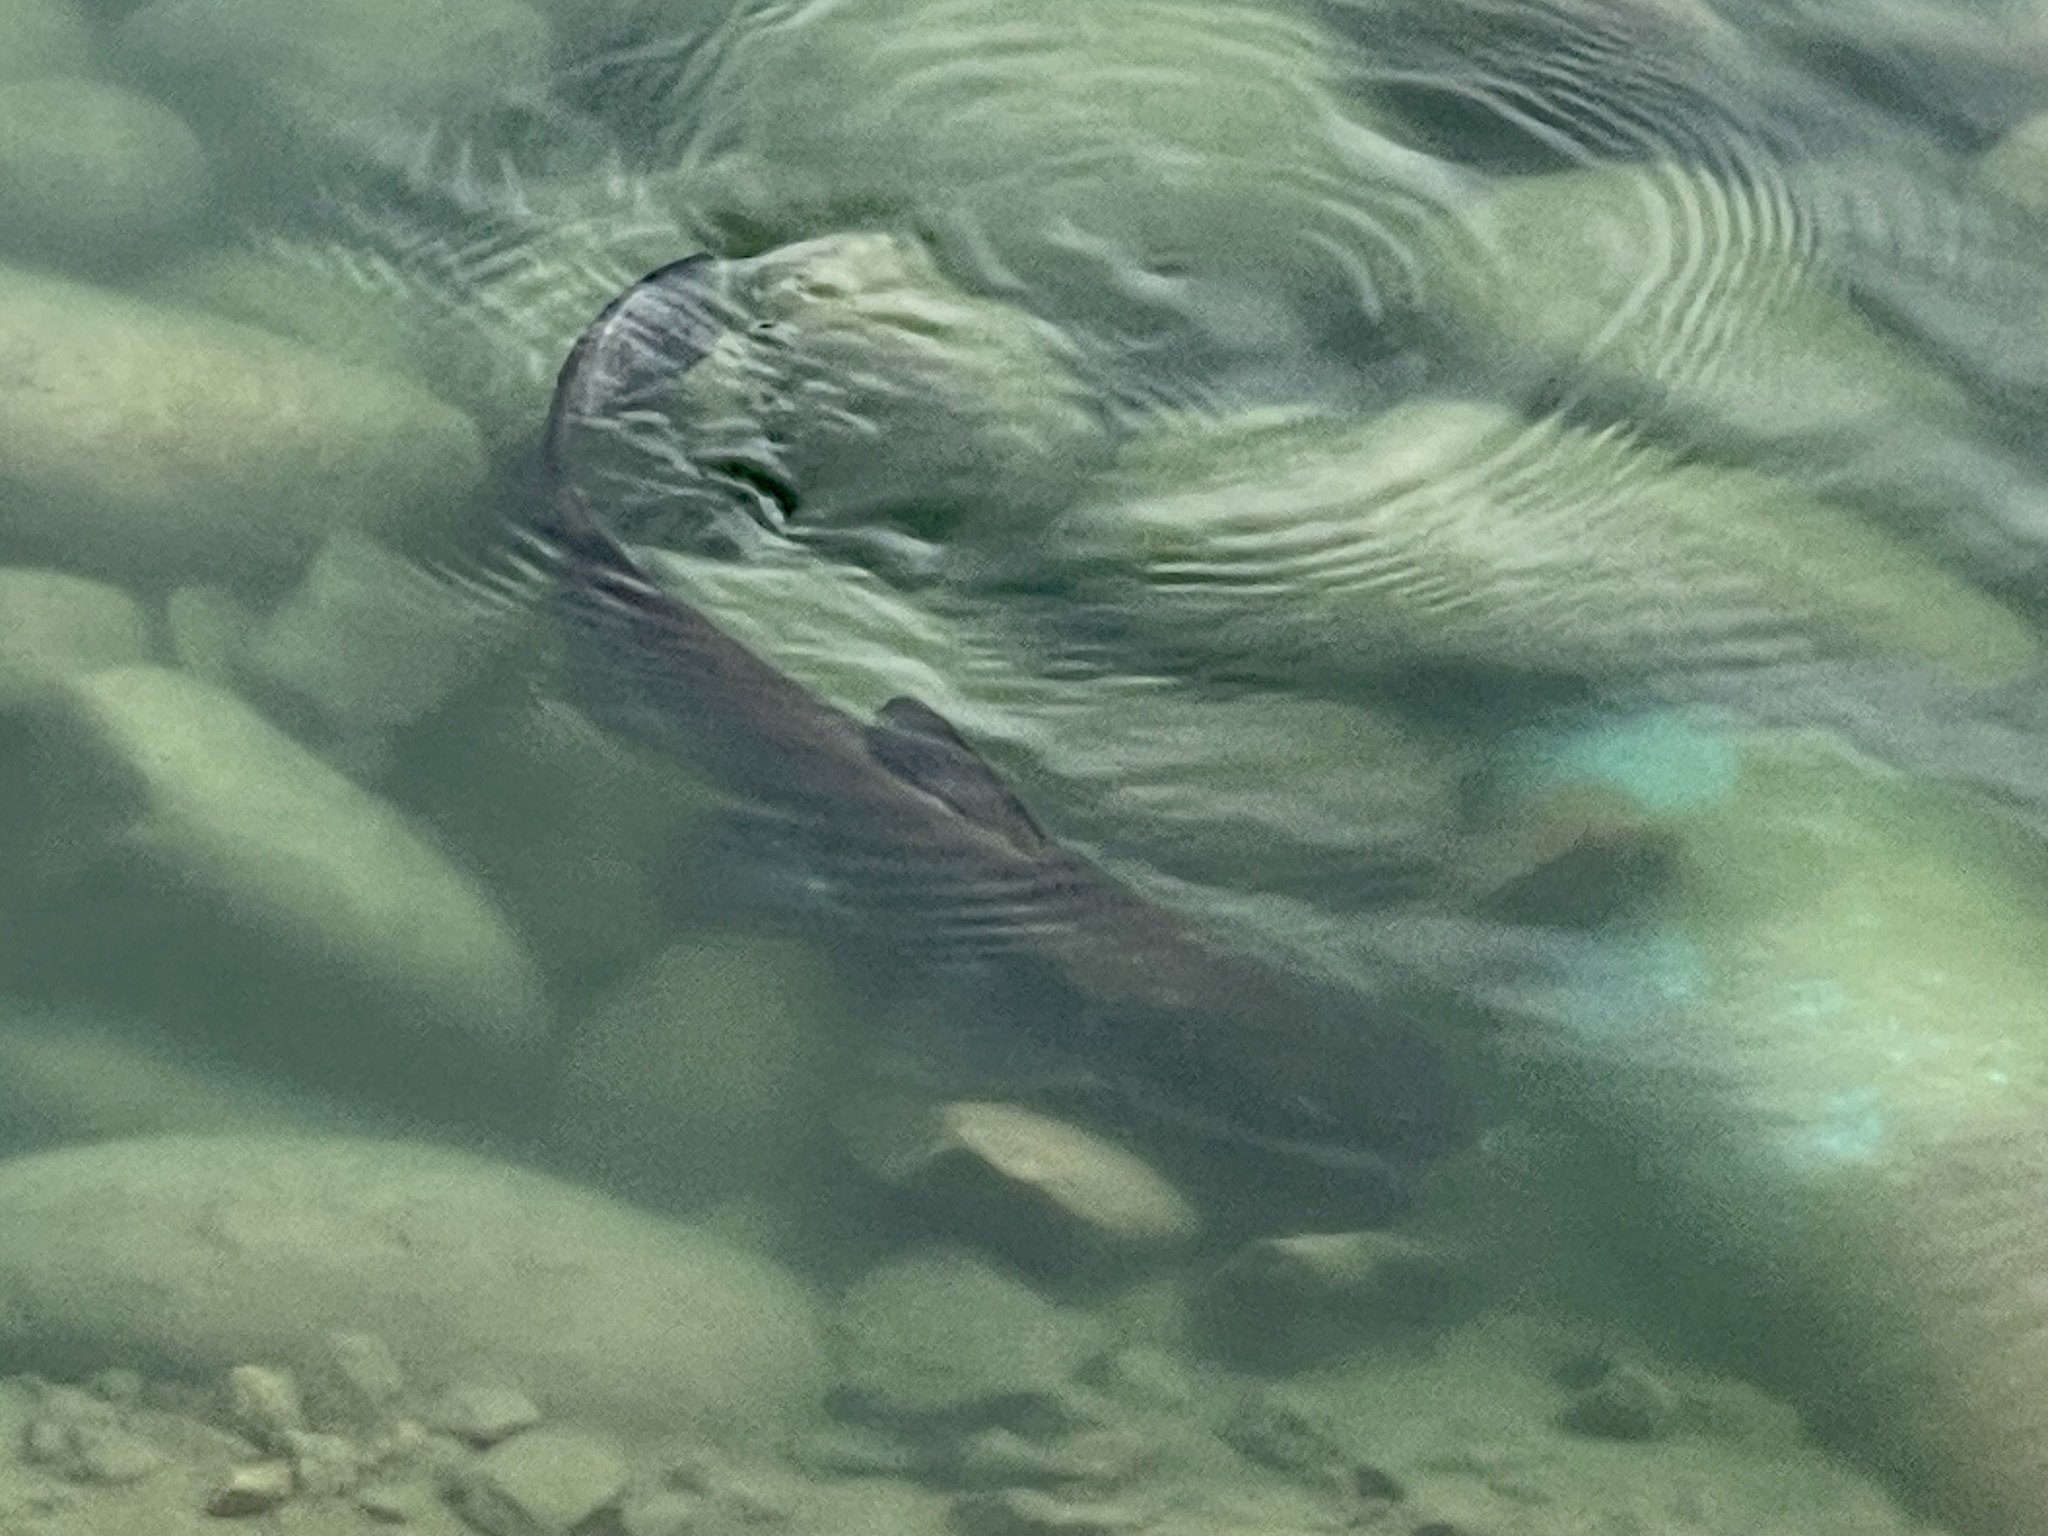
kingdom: Animalia
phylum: Chordata
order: Siluriformes
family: Ictaluridae
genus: Ictalurus
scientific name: Ictalurus punctatus
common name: Channel catfish
